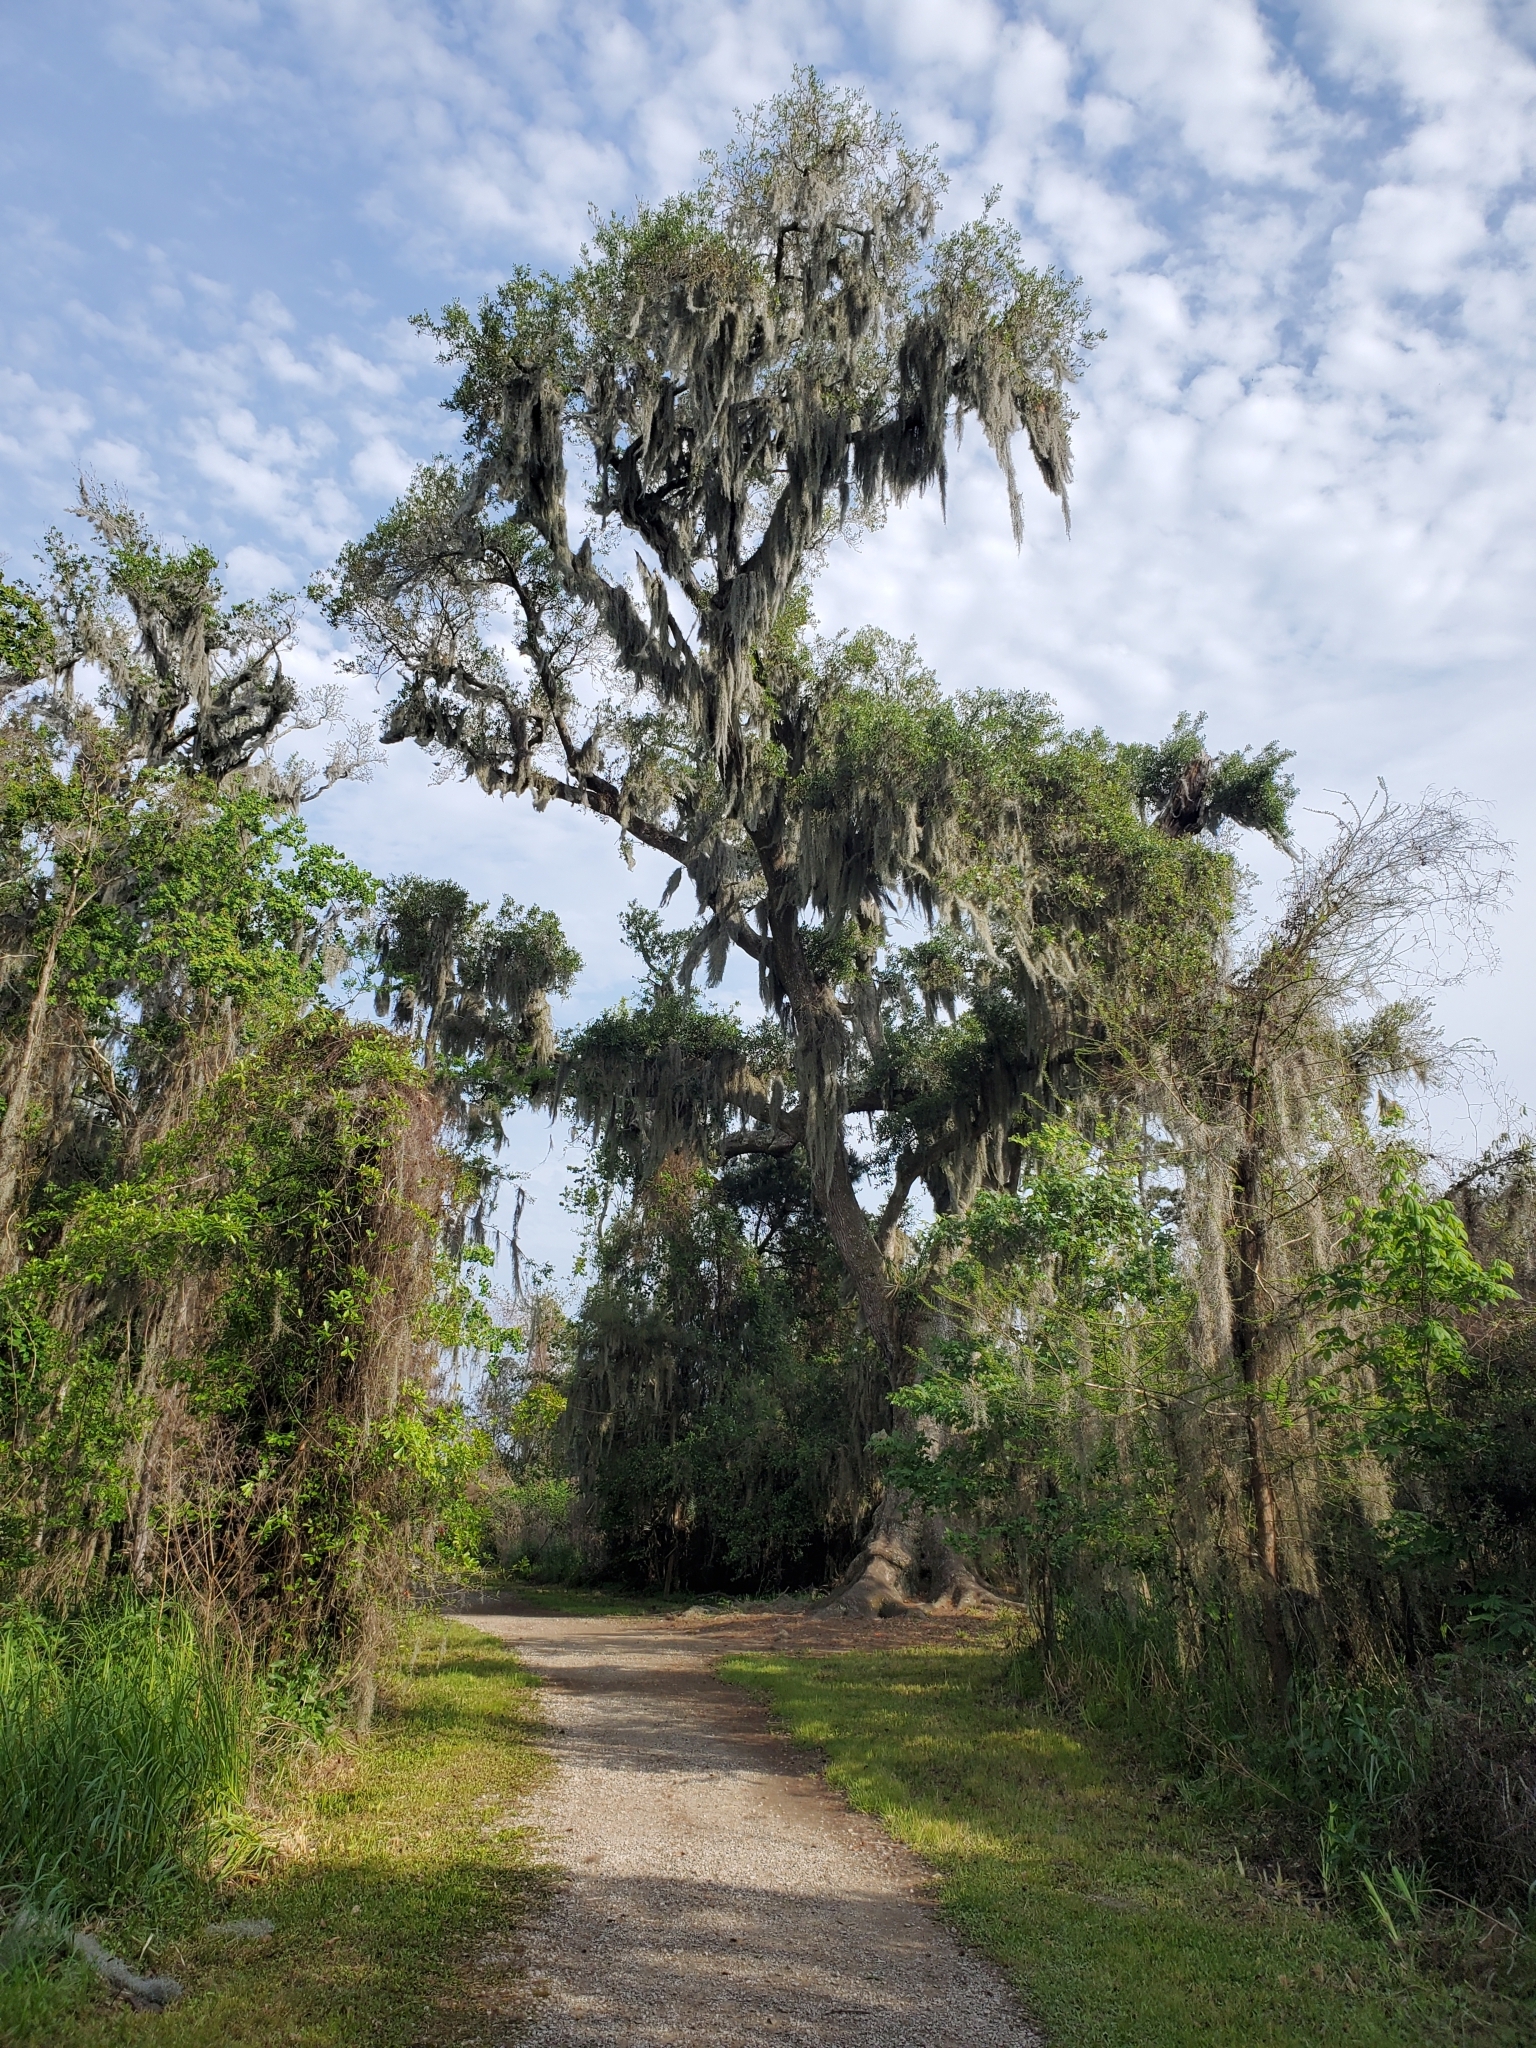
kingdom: Plantae
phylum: Tracheophyta
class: Magnoliopsida
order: Fagales
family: Fagaceae
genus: Quercus
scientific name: Quercus virginiana
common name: Southern live oak
